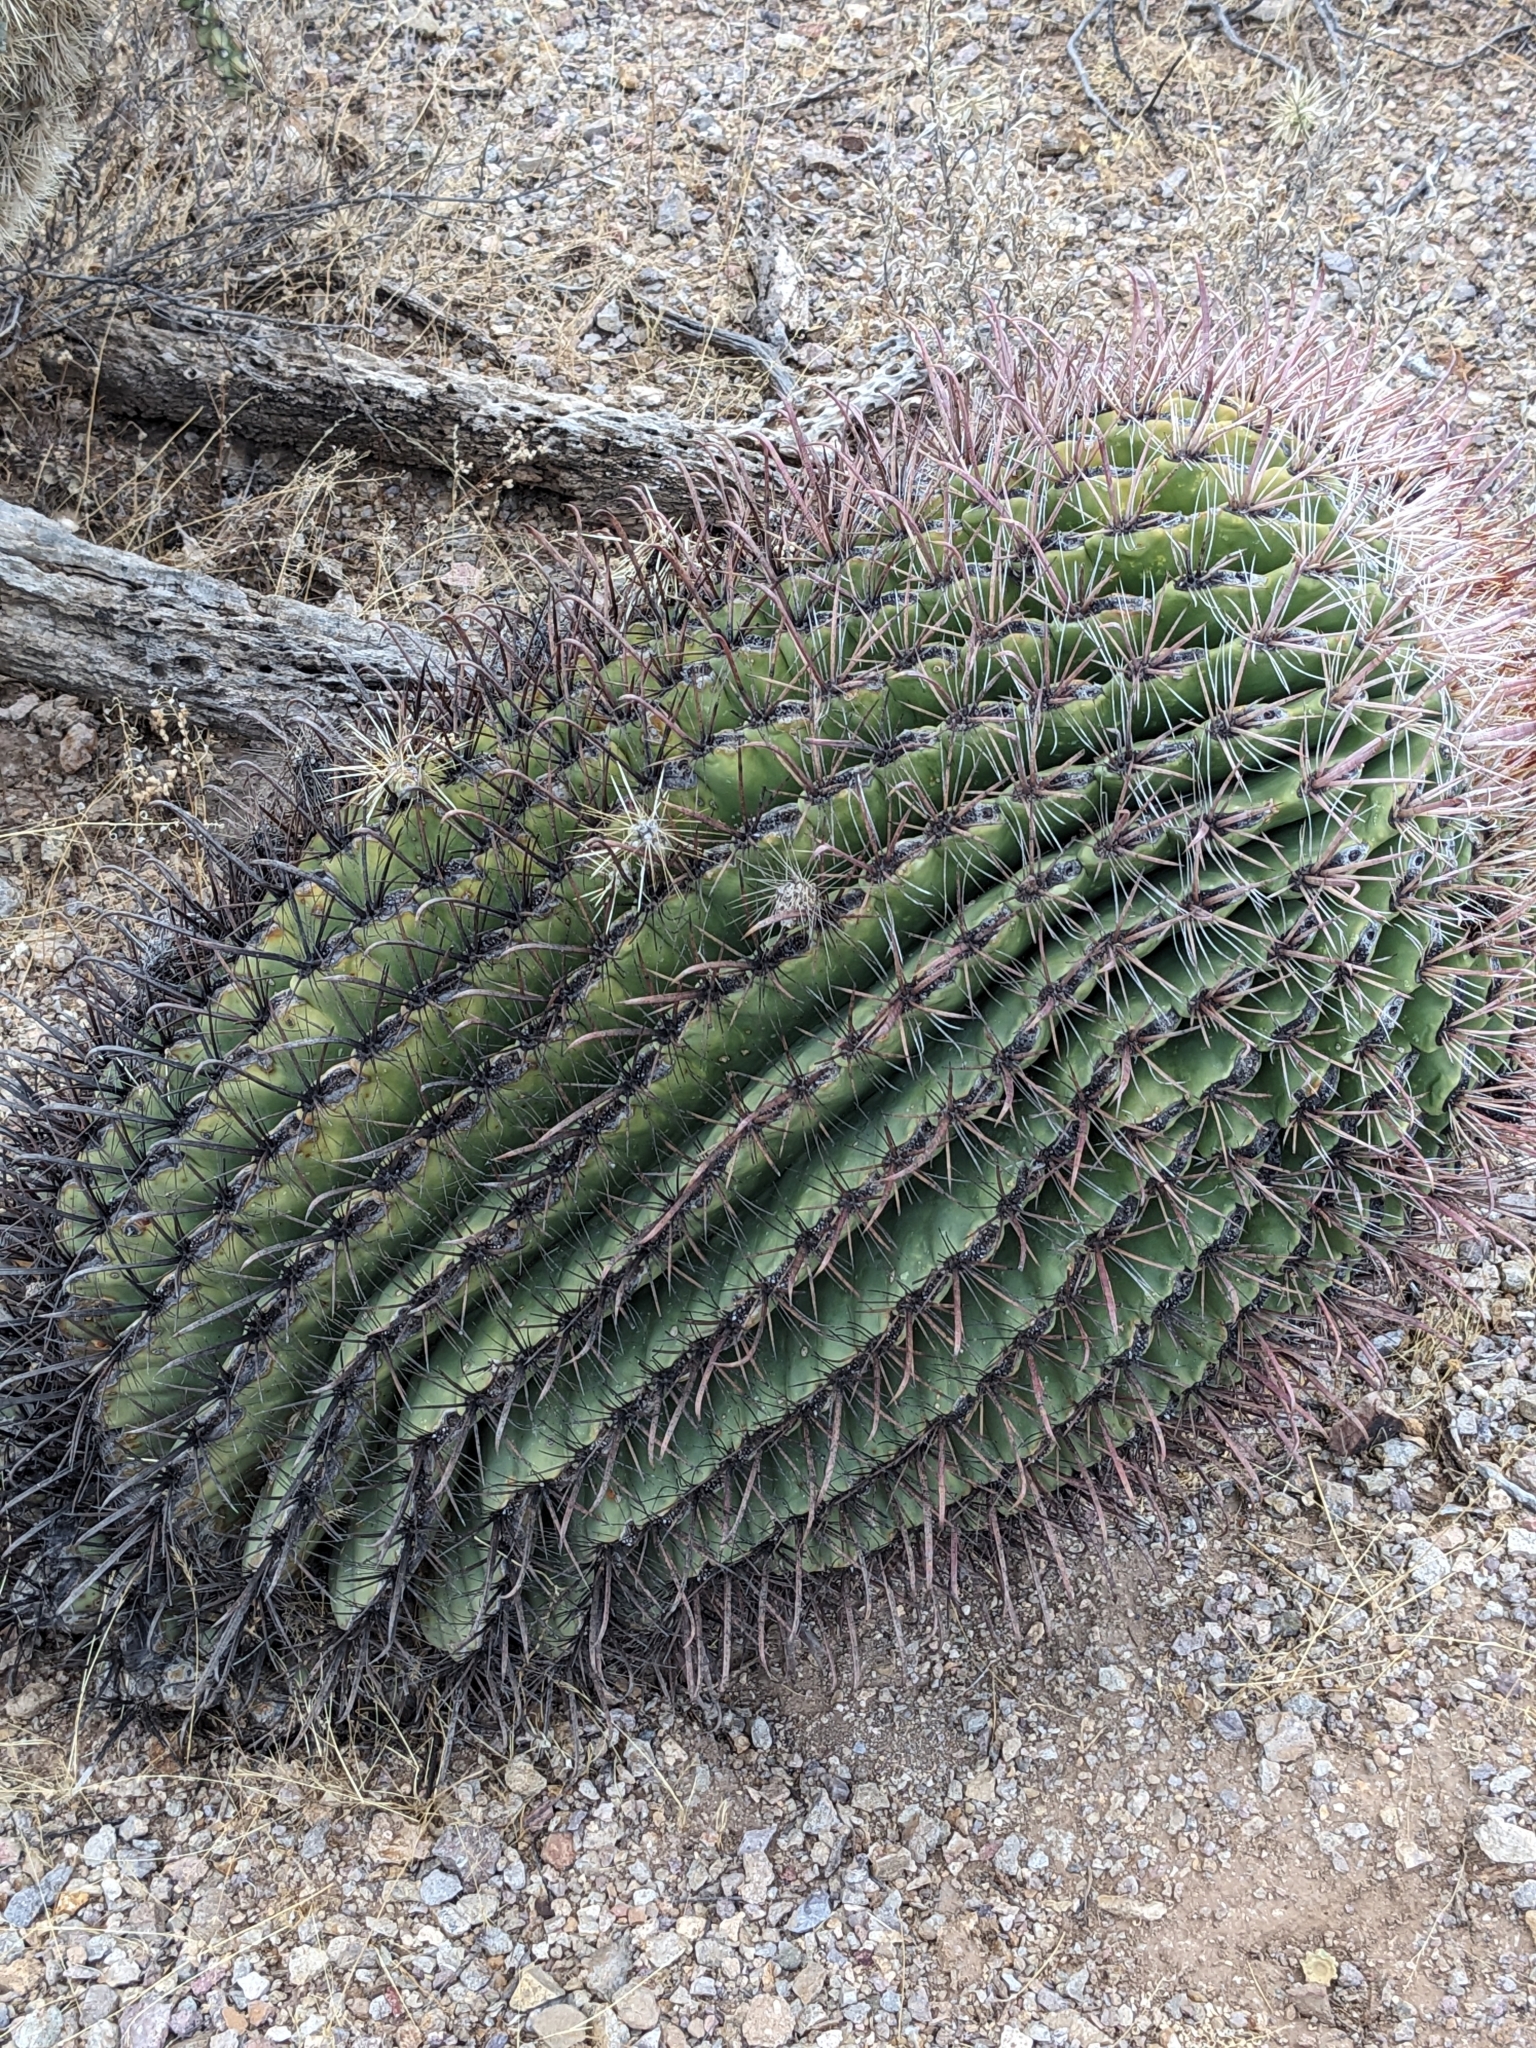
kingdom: Plantae
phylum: Tracheophyta
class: Magnoliopsida
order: Caryophyllales
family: Cactaceae
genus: Ferocactus
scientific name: Ferocactus wislizeni
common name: Candy barrel cactus
